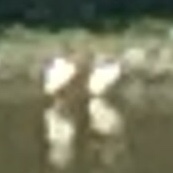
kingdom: Animalia
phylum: Chordata
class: Aves
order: Pelecaniformes
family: Pelecanidae
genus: Pelecanus
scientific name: Pelecanus erythrorhynchos
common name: American white pelican
